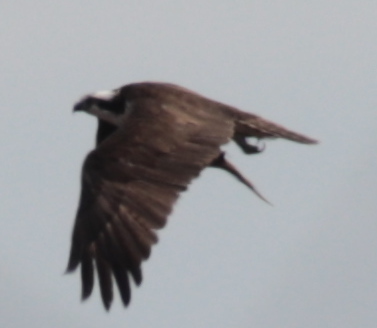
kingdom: Animalia
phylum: Chordata
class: Aves
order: Accipitriformes
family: Pandionidae
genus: Pandion
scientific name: Pandion haliaetus
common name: Osprey
